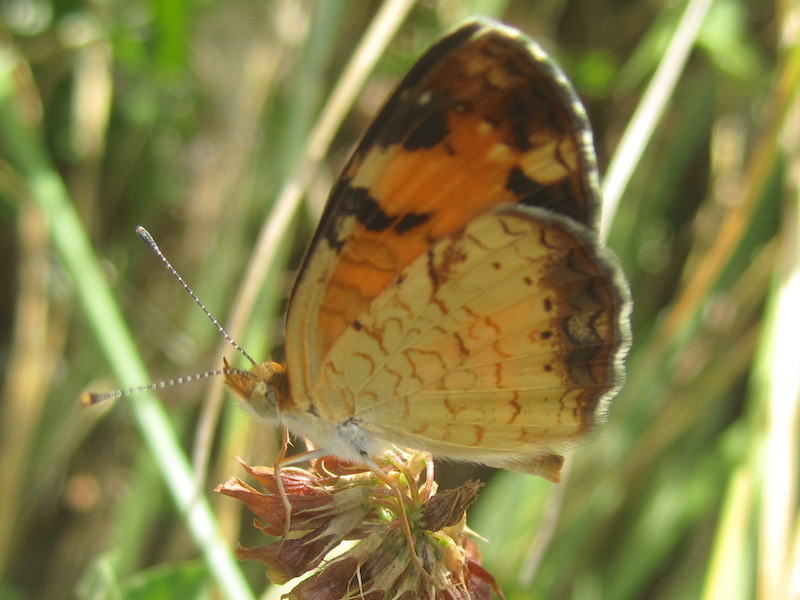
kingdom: Animalia
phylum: Arthropoda
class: Insecta
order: Lepidoptera
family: Nymphalidae
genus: Phyciodes
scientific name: Phyciodes tharos
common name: Pearl crescent
